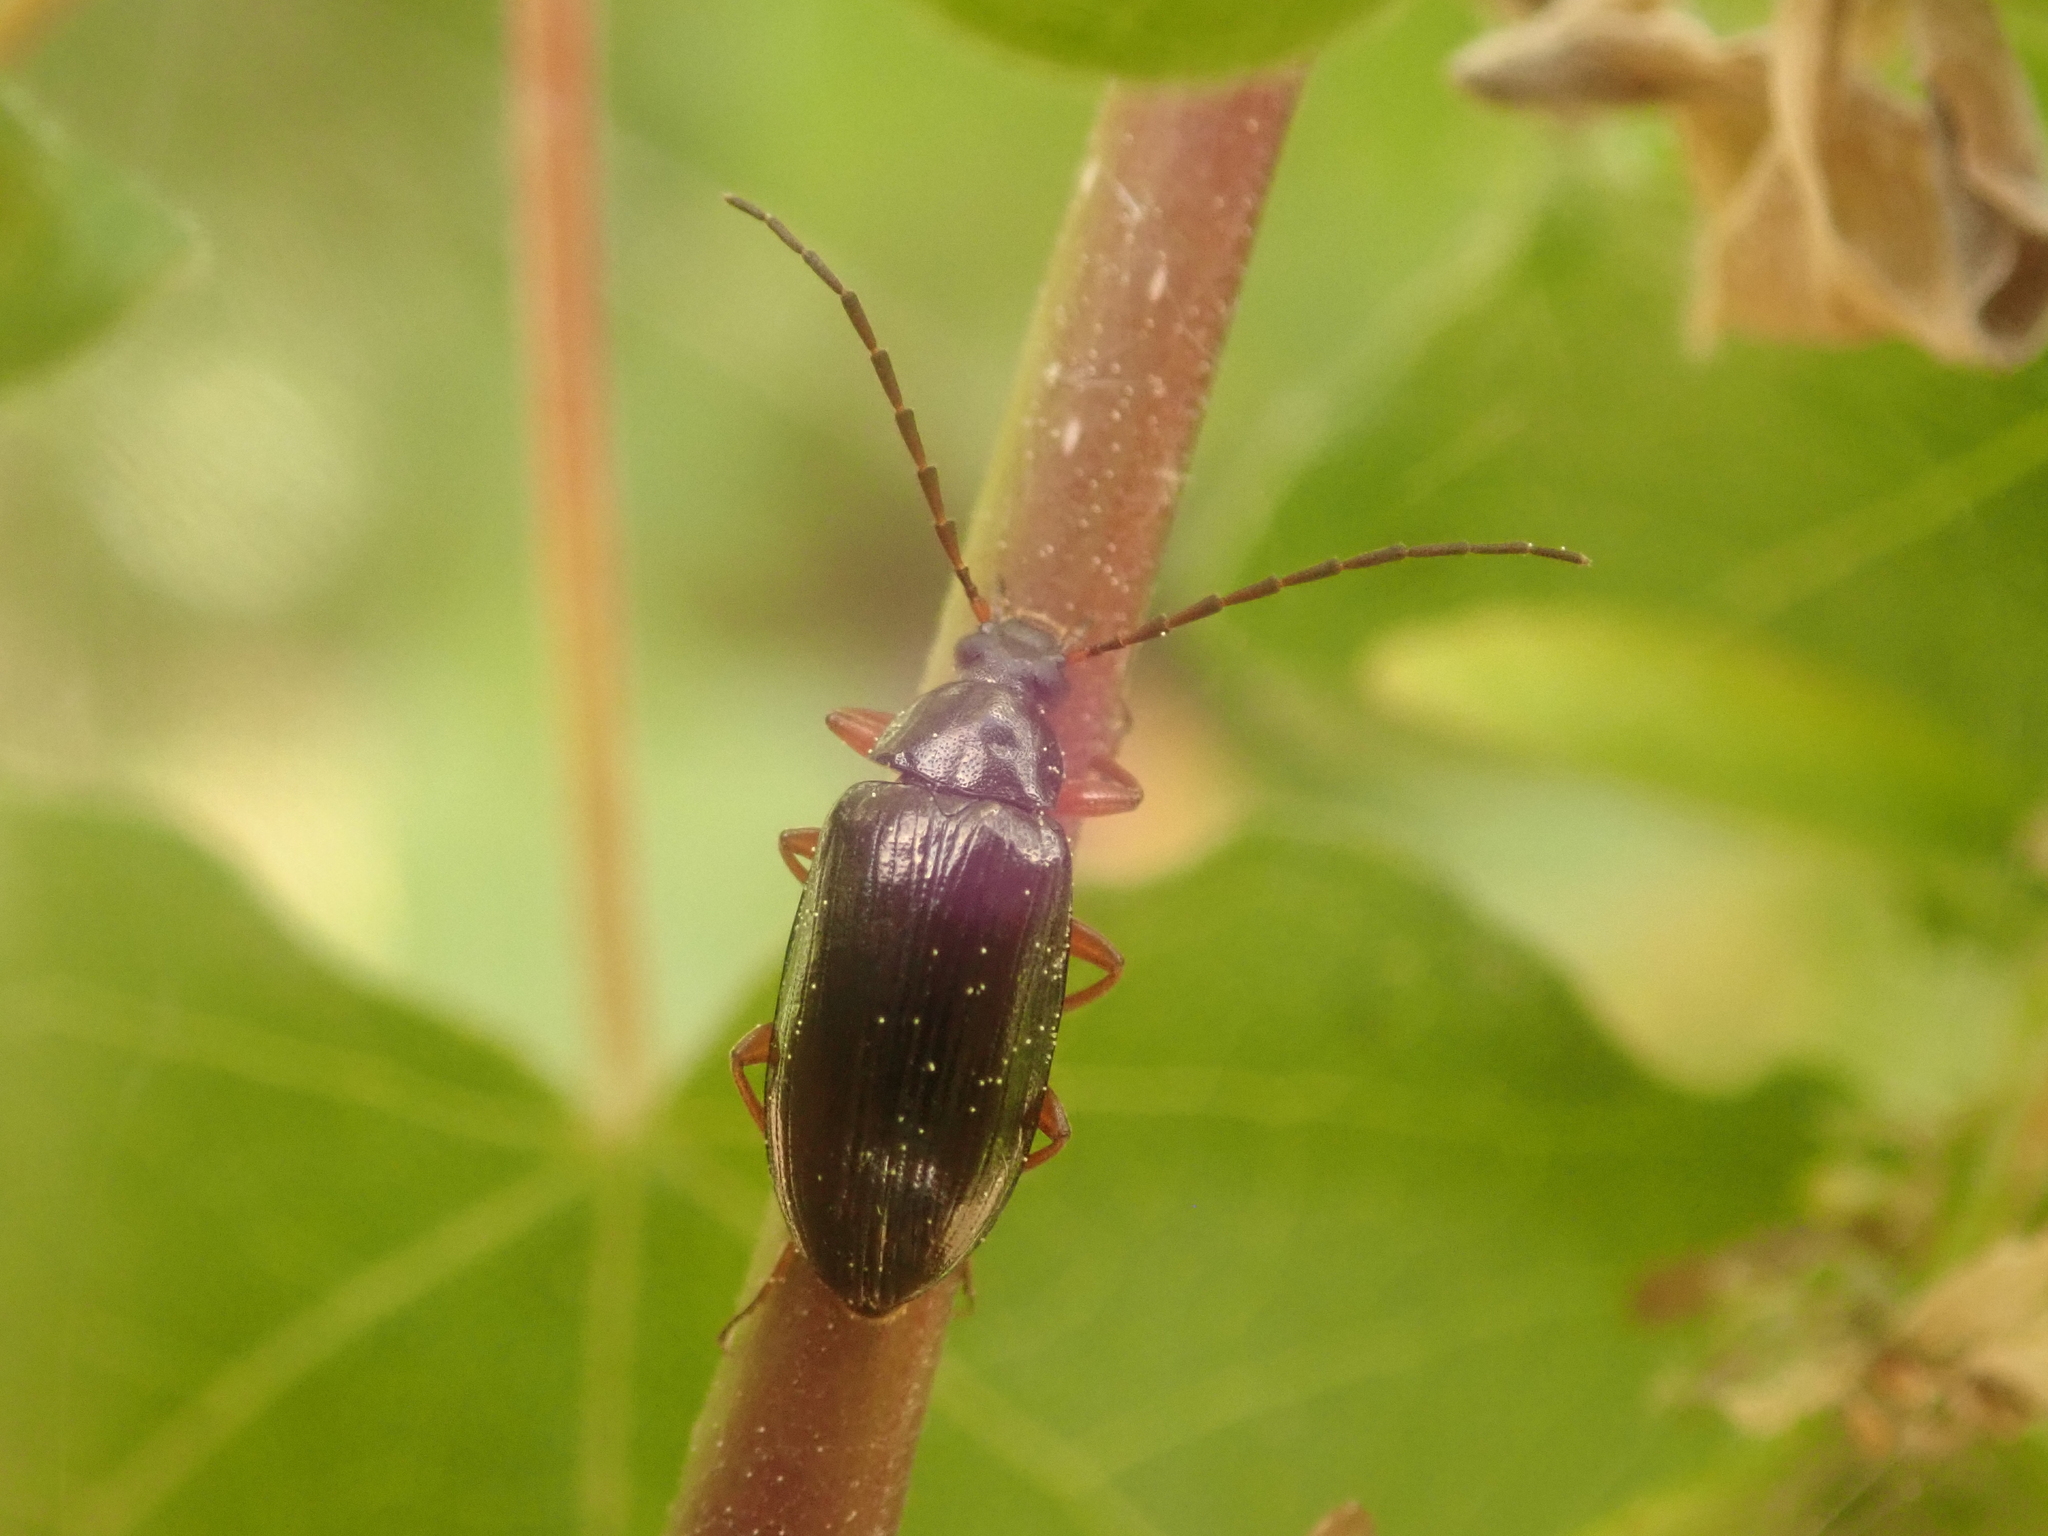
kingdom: Animalia
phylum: Arthropoda
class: Insecta
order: Coleoptera
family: Tenebrionidae
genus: Gonodera
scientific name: Gonodera luperus
